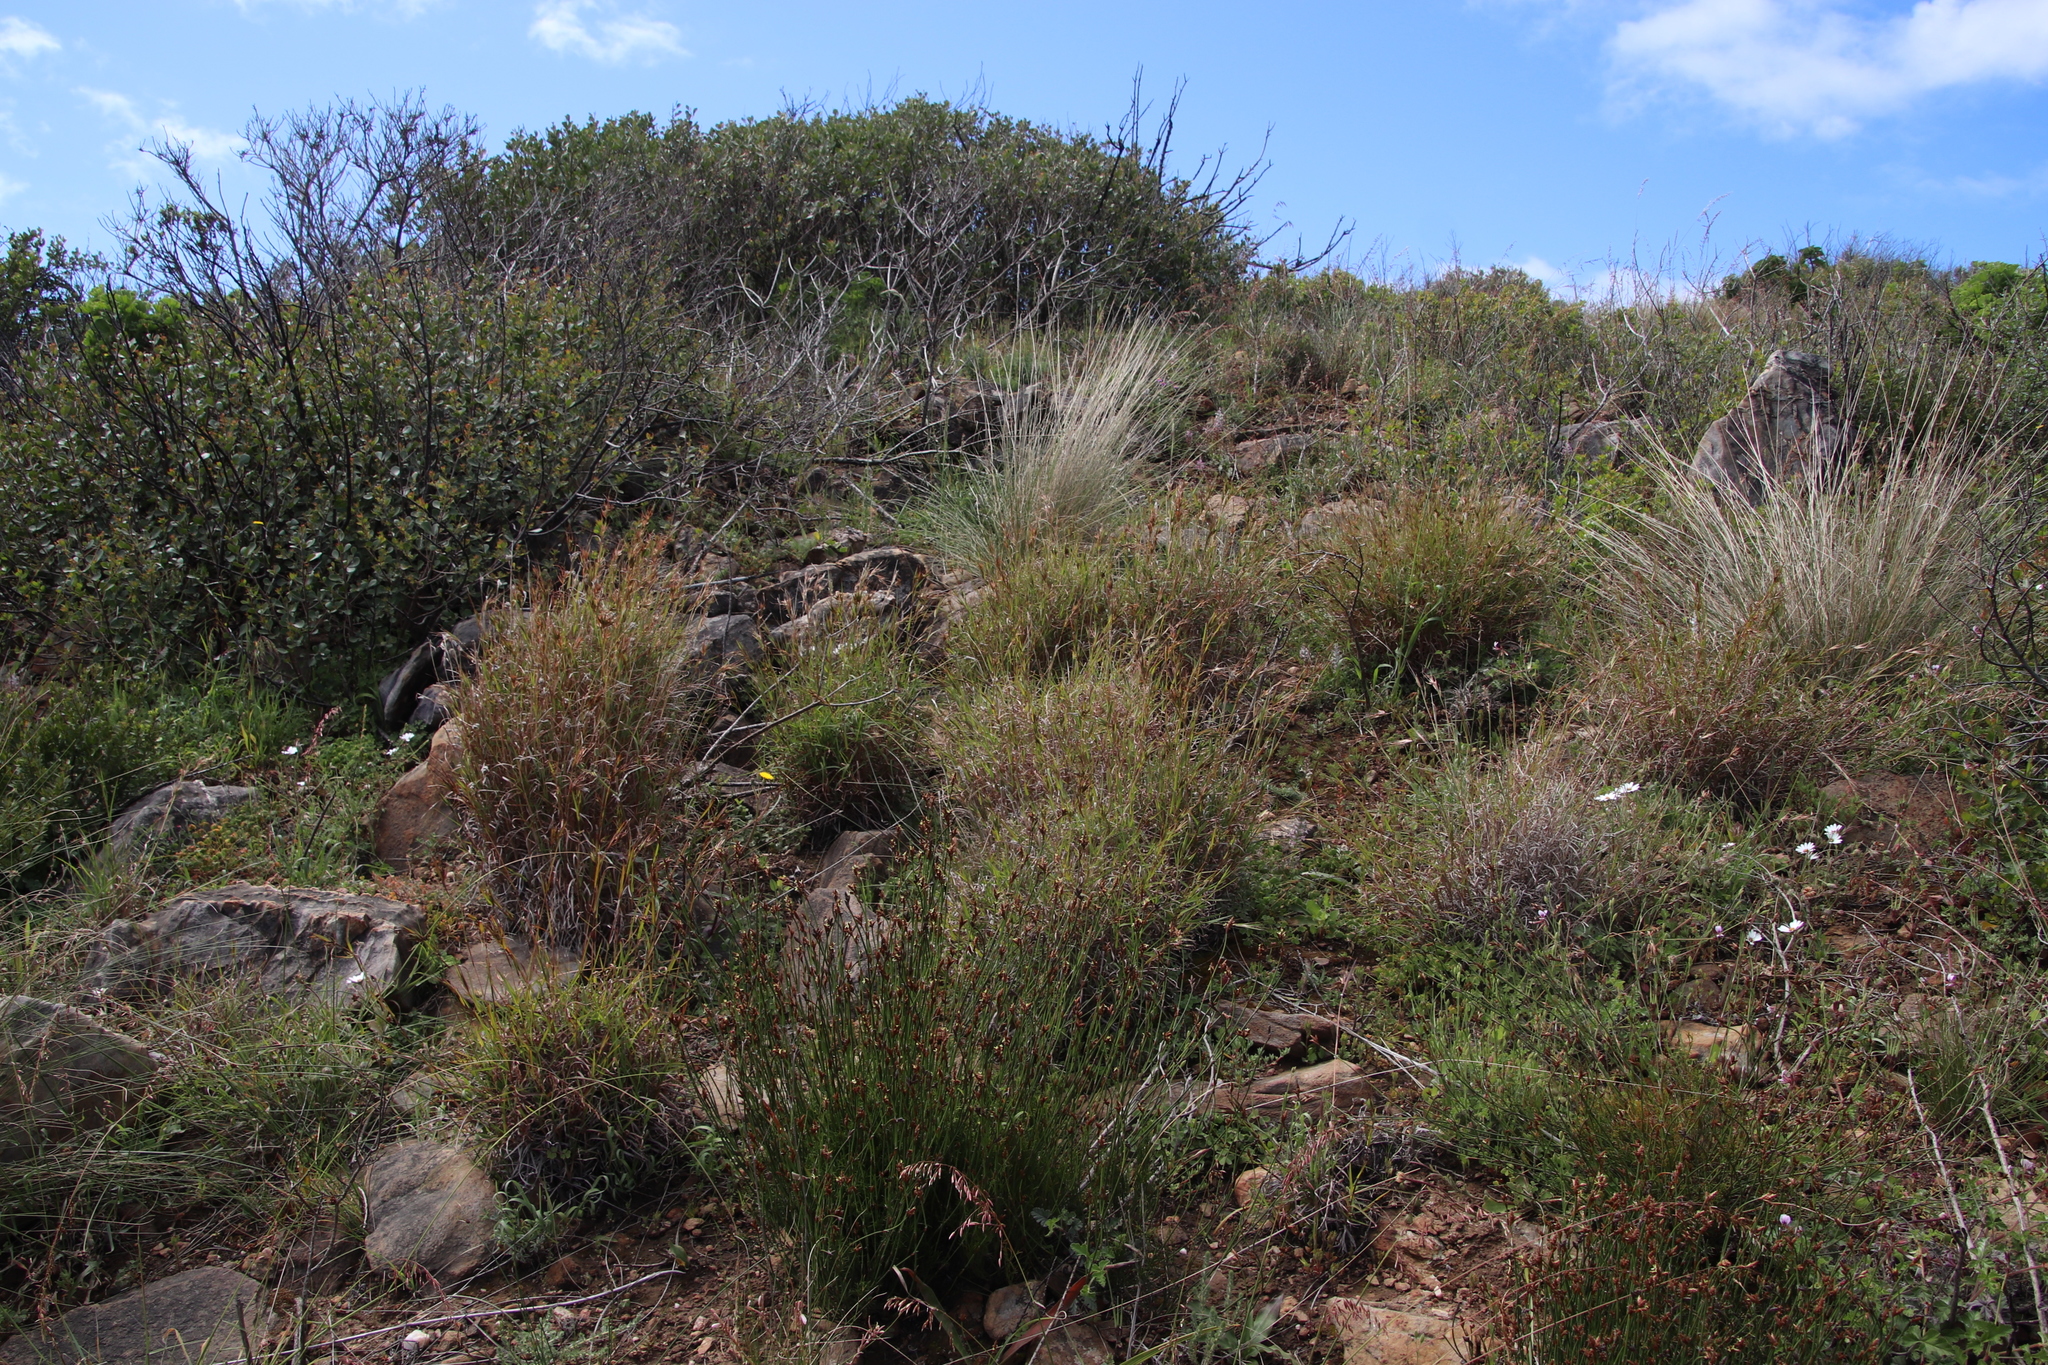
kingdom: Plantae
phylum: Tracheophyta
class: Liliopsida
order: Poales
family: Poaceae
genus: Themeda
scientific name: Themeda triandra
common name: Kangaroo grass
